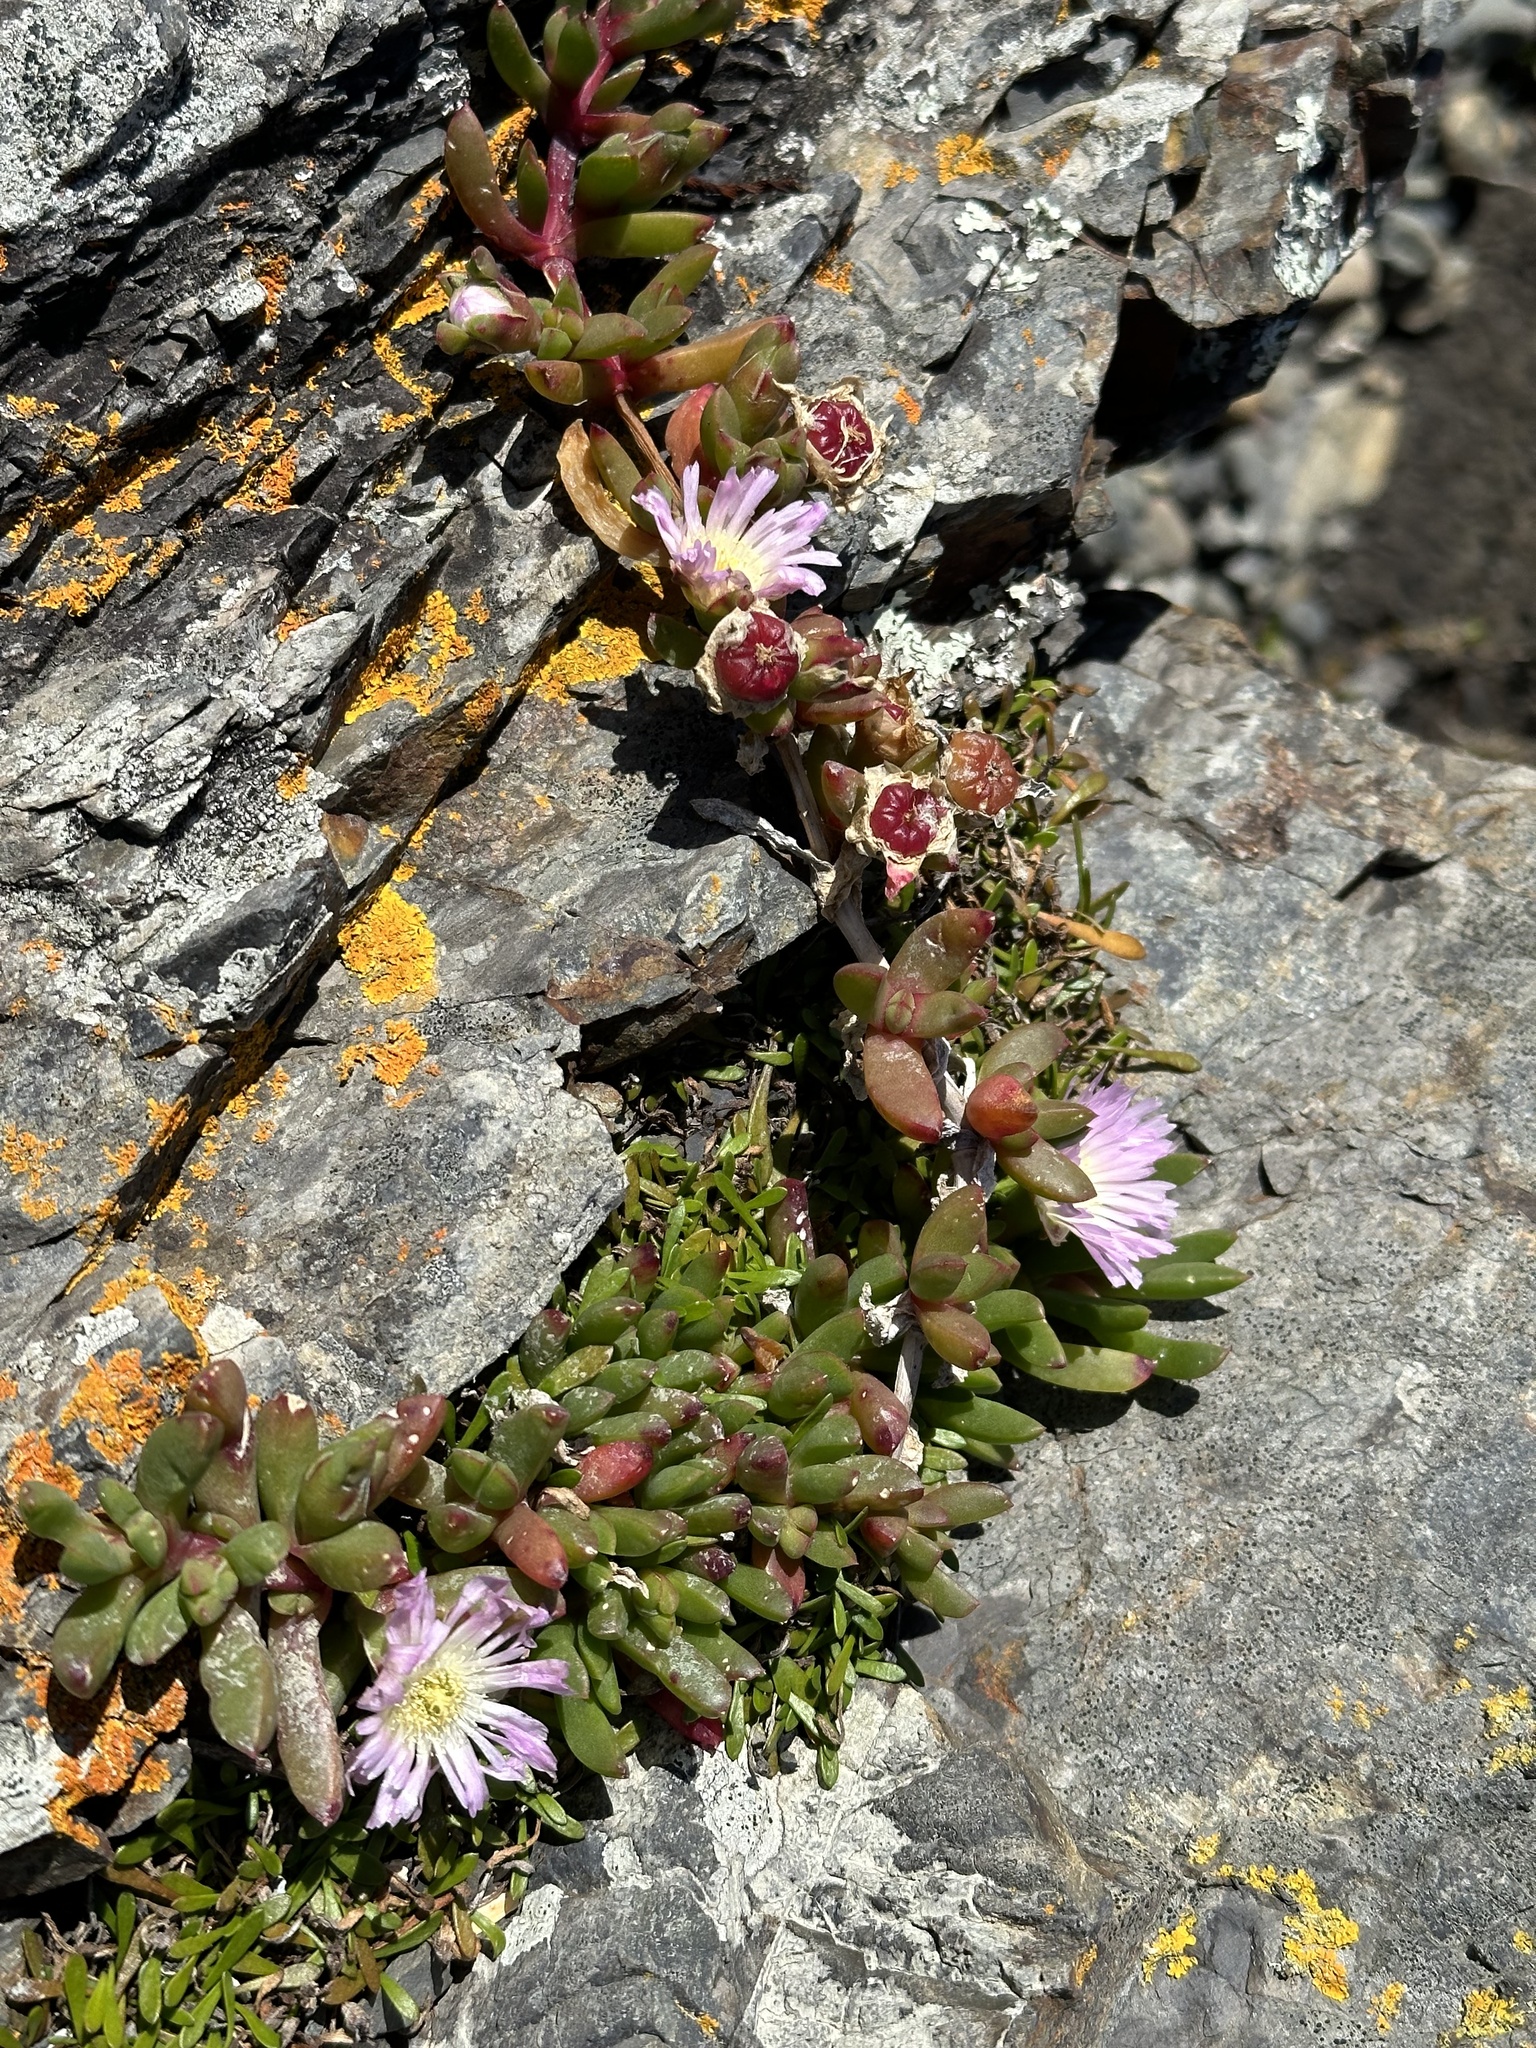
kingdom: Plantae
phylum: Tracheophyta
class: Magnoliopsida
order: Caryophyllales
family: Aizoaceae
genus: Disphyma
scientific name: Disphyma australe
